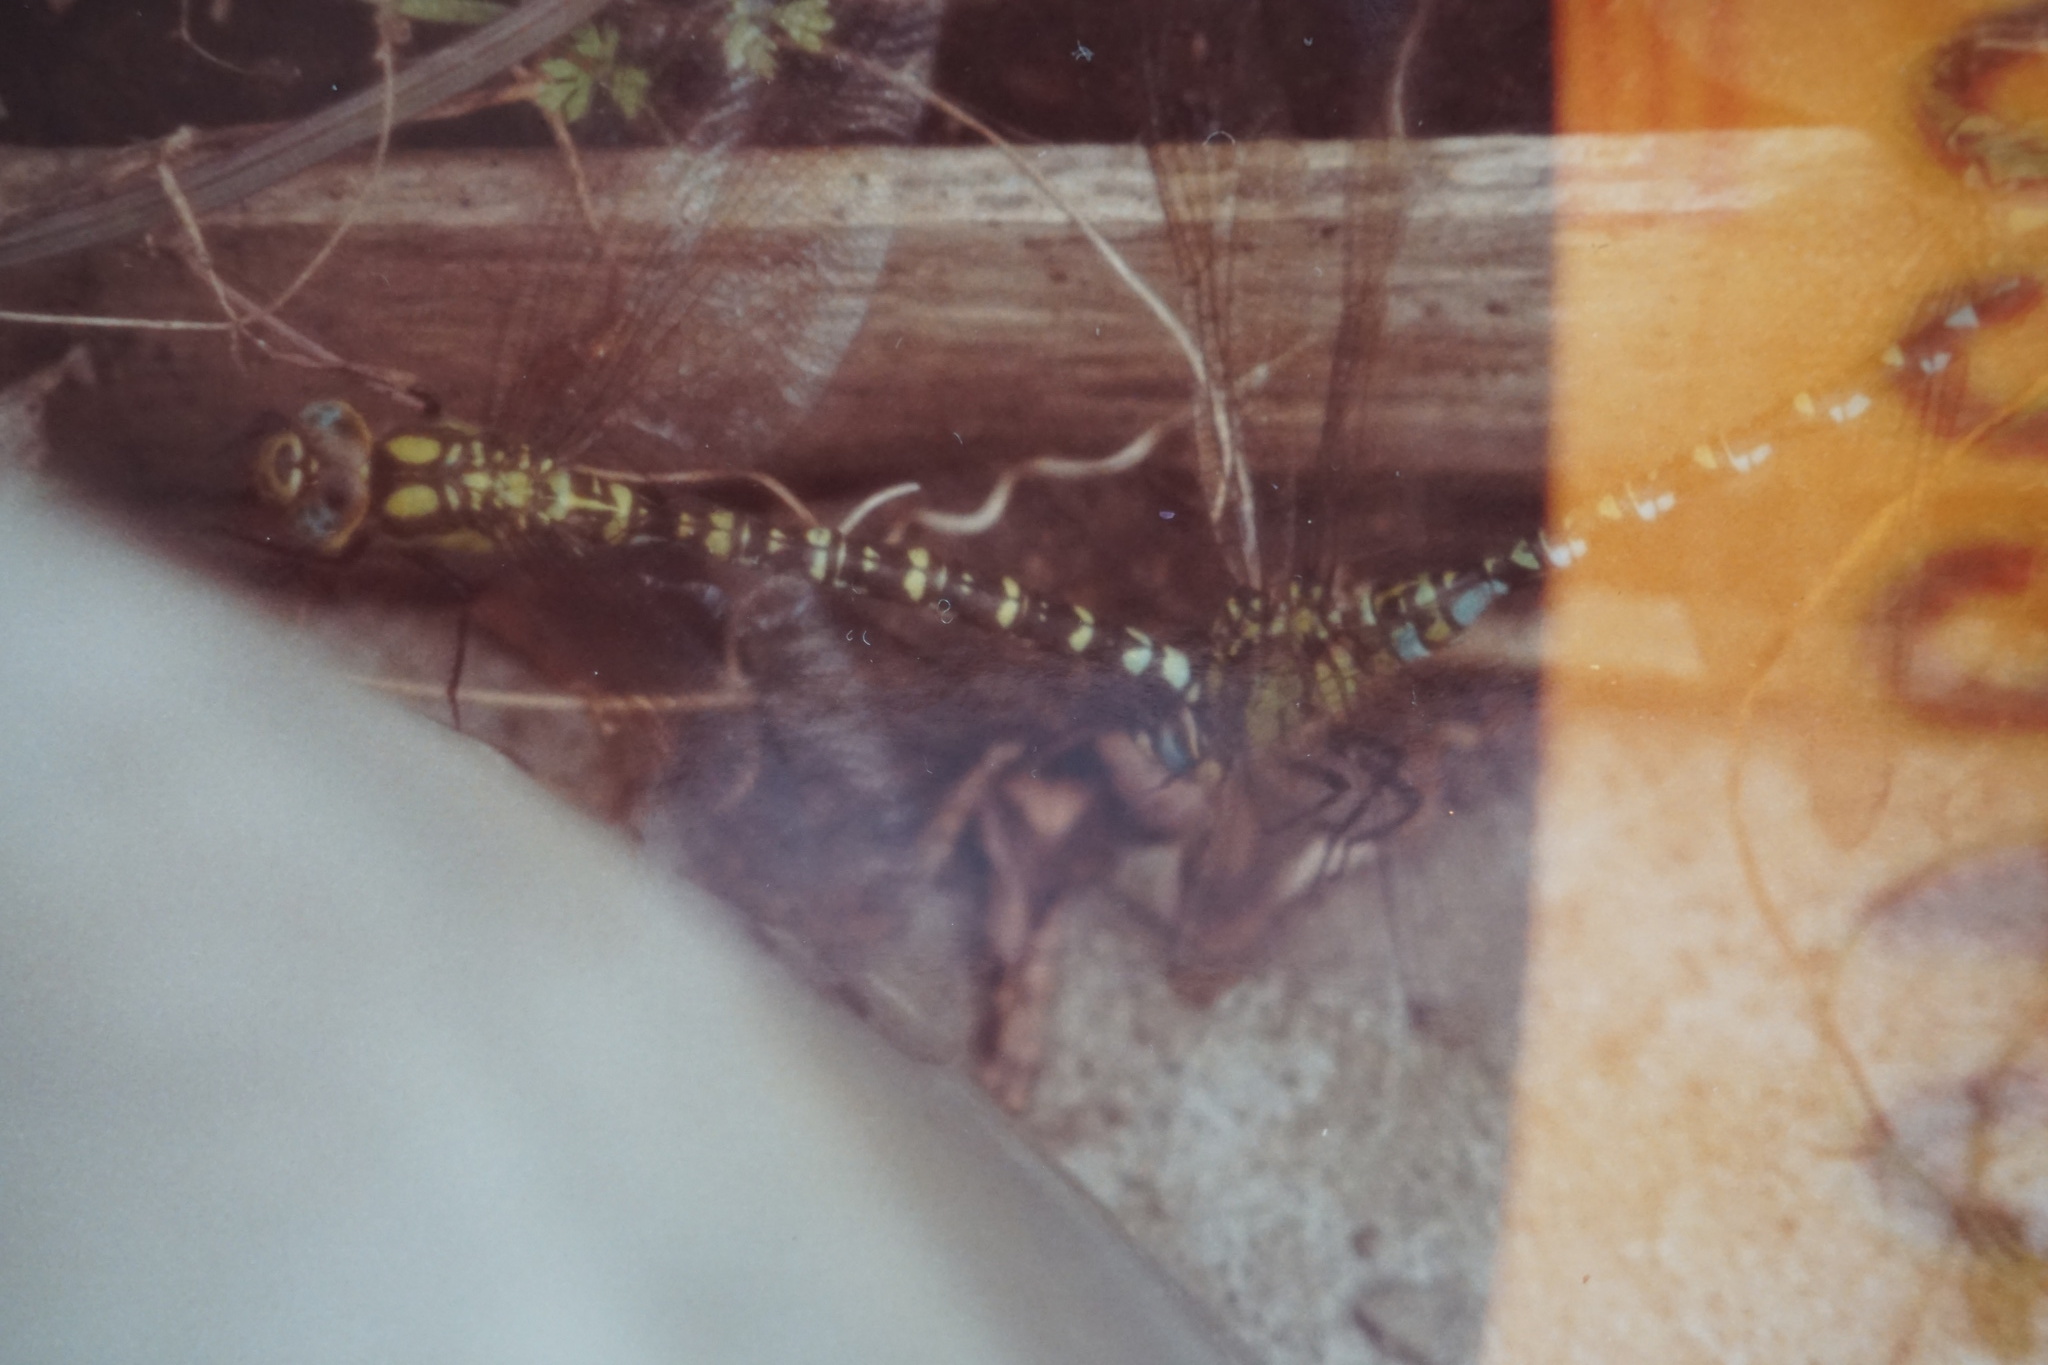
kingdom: Animalia
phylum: Arthropoda
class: Insecta
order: Odonata
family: Aeshnidae
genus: Aeshna
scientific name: Aeshna cyanea
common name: Southern hawker
